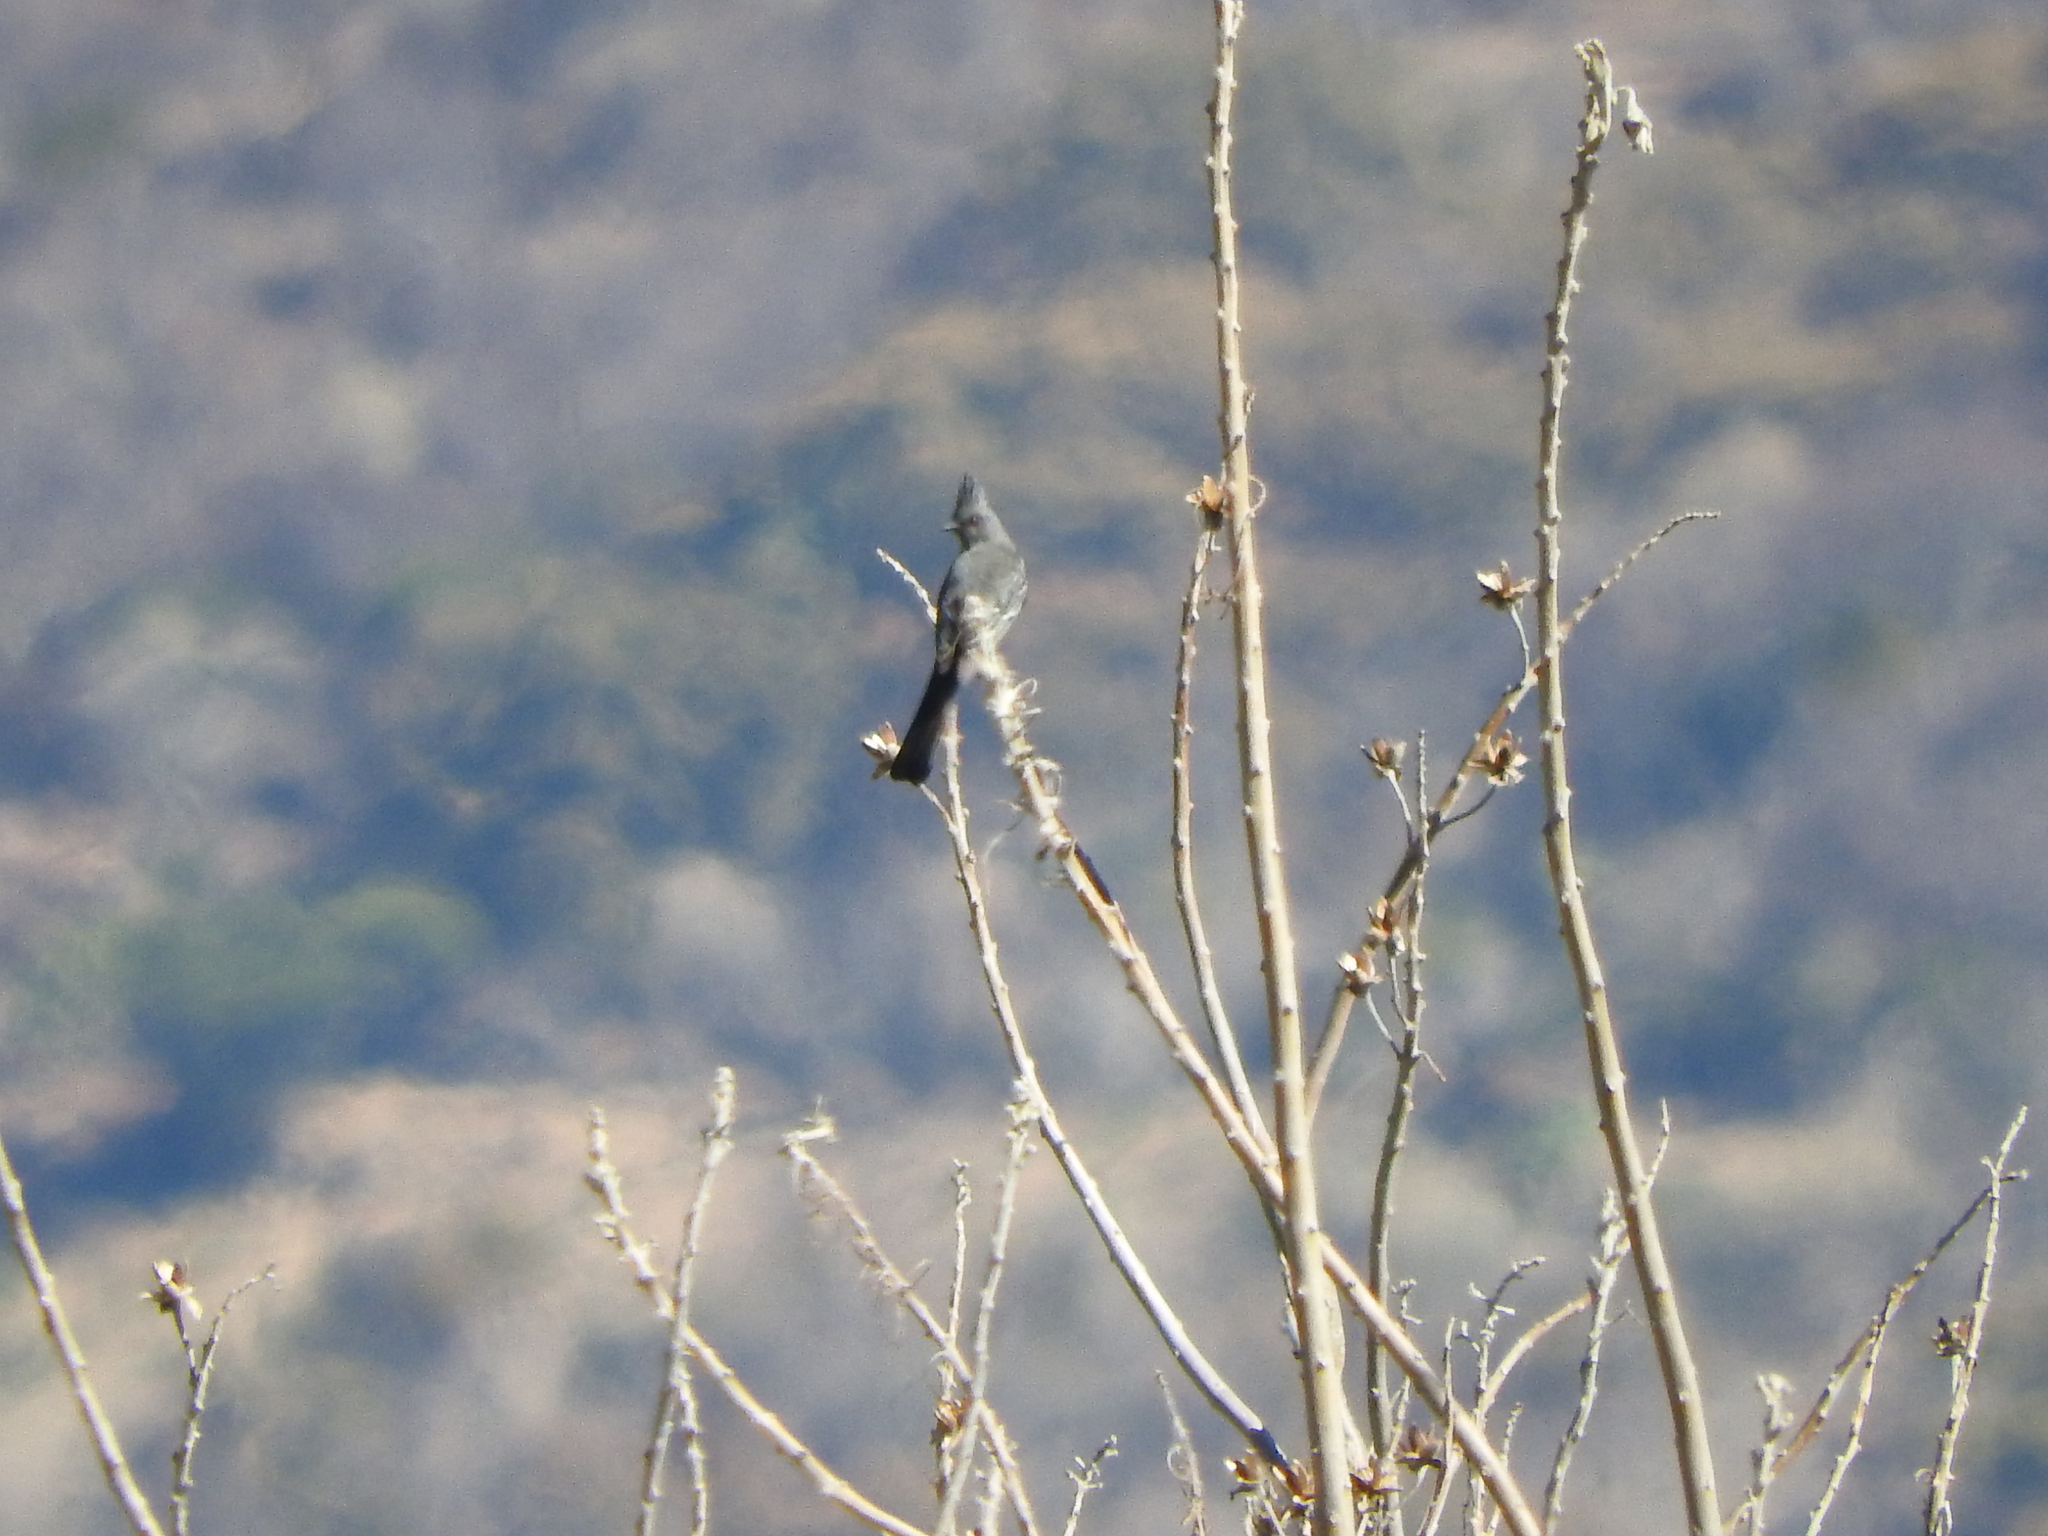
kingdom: Animalia
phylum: Chordata
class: Aves
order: Passeriformes
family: Ptilogonatidae
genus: Phainopepla
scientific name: Phainopepla nitens
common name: Phainopepla
